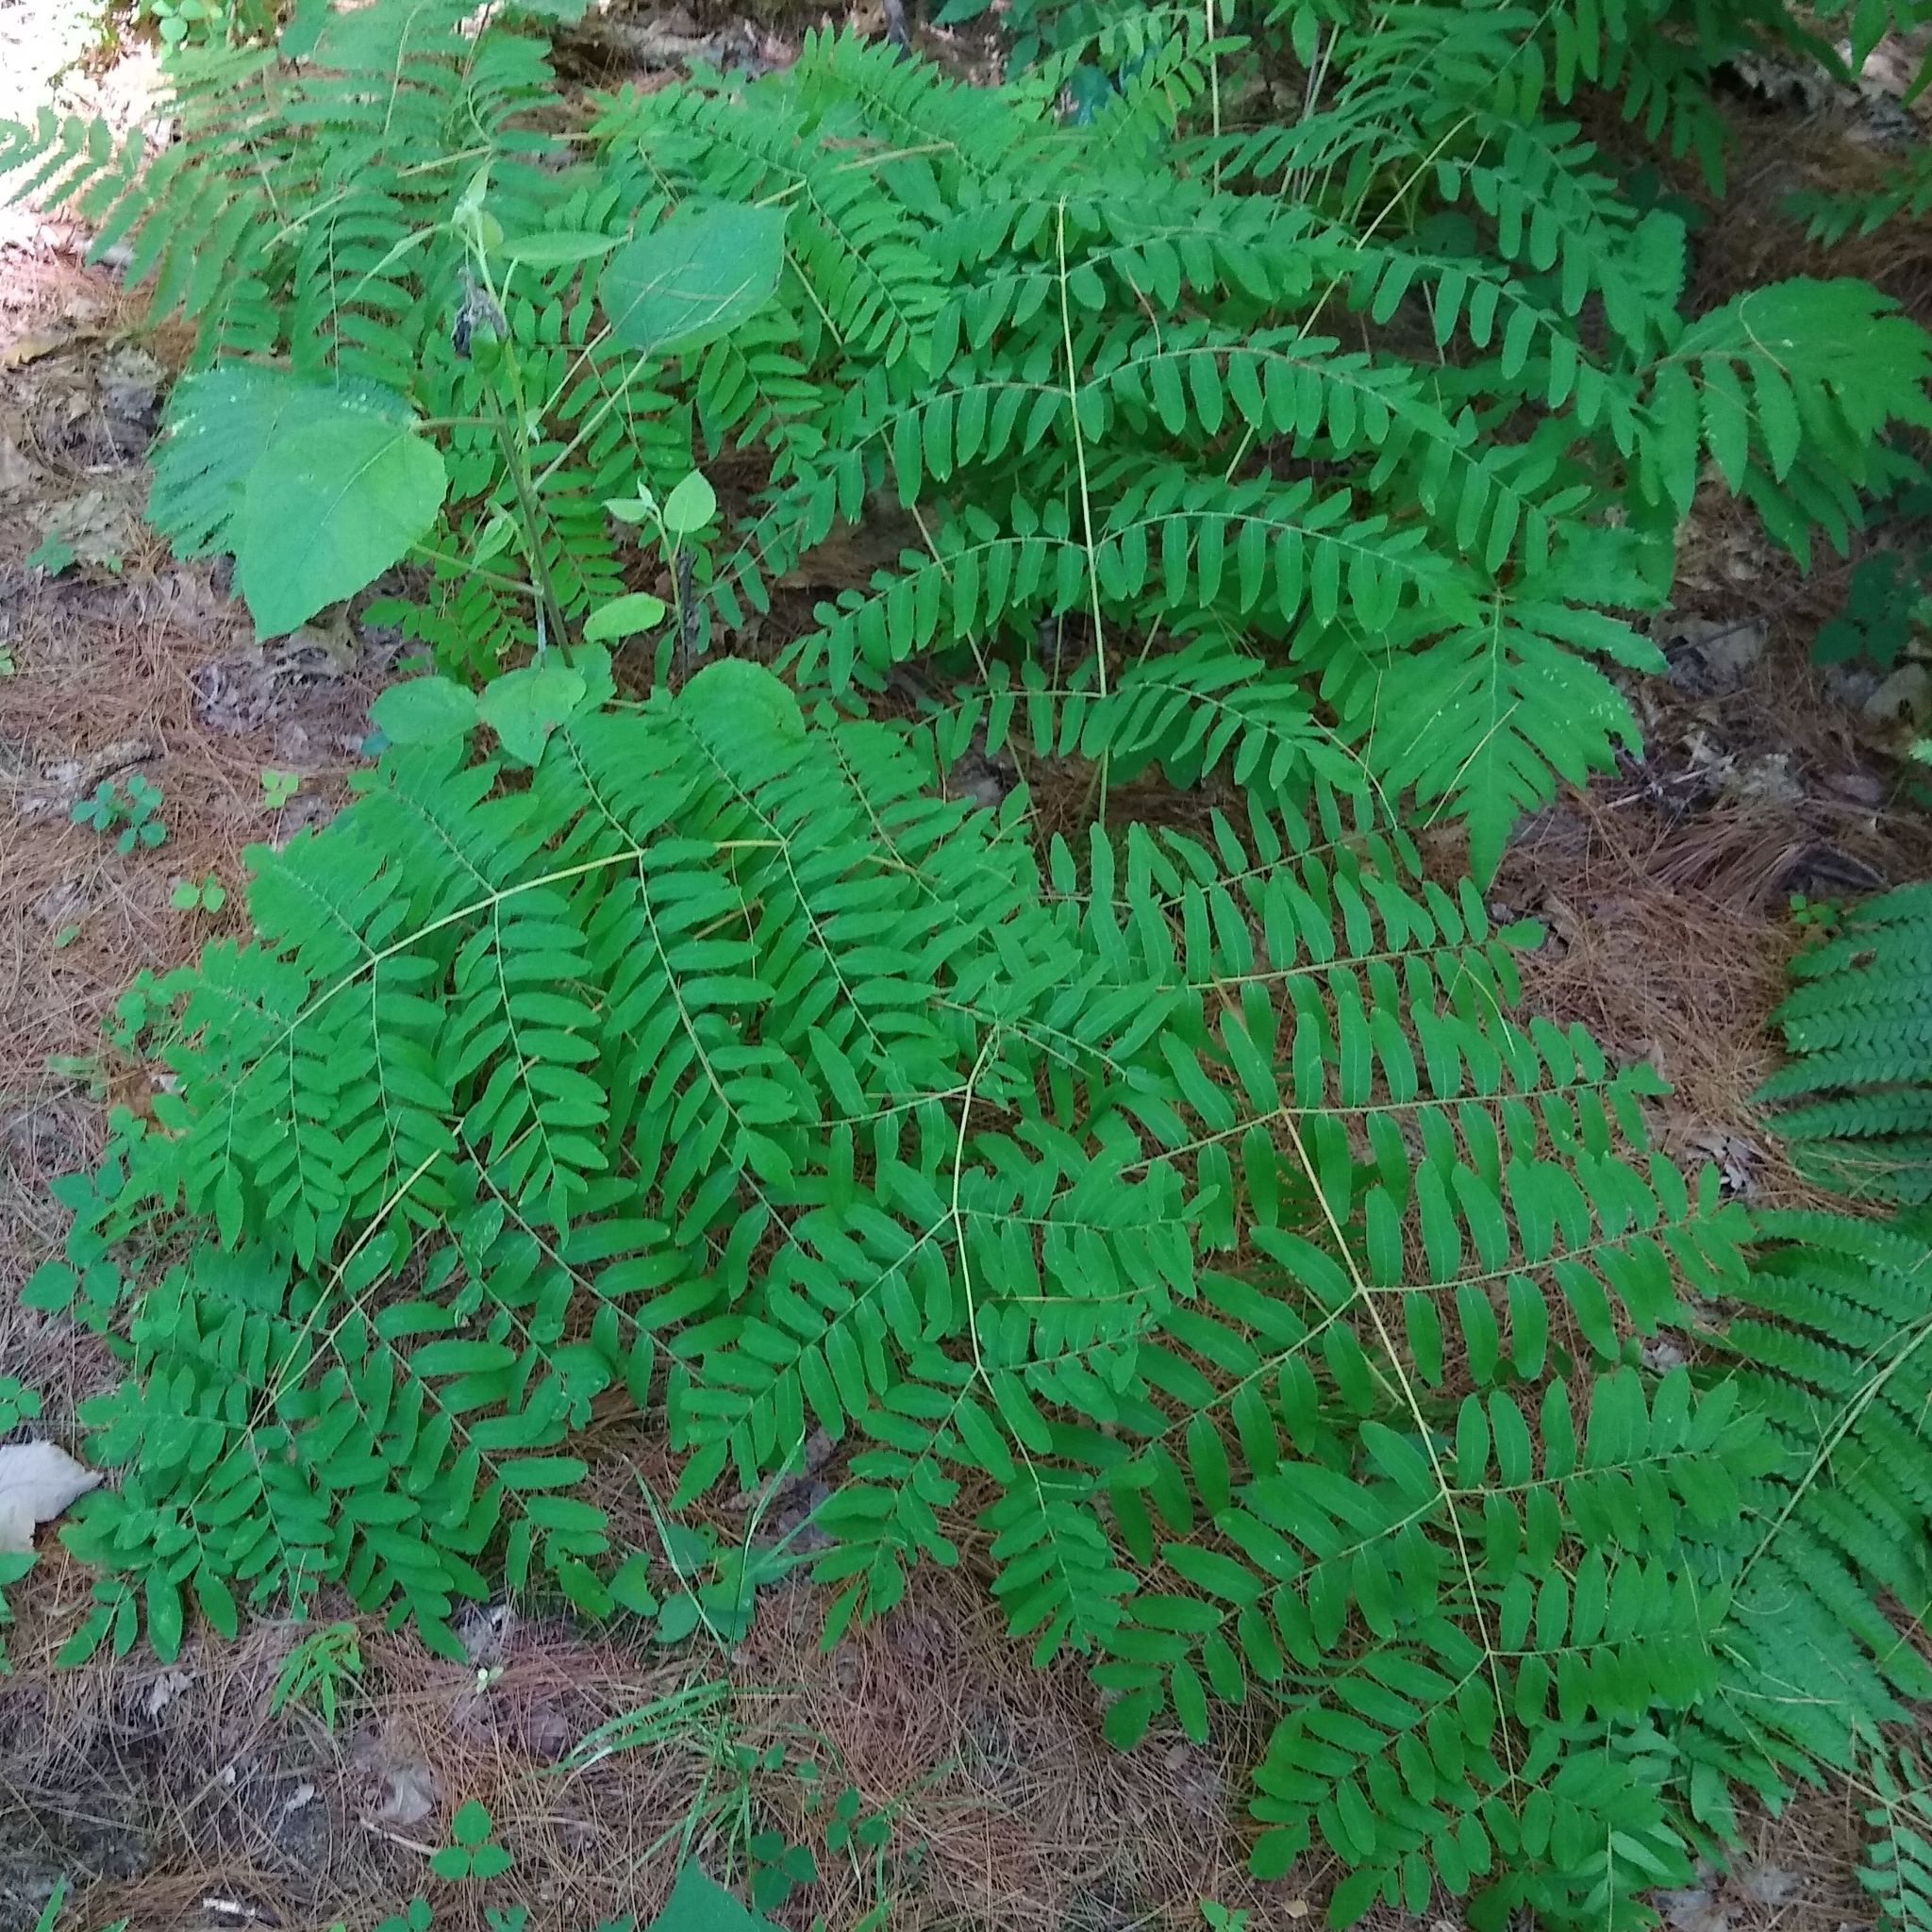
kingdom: Plantae
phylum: Tracheophyta
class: Polypodiopsida
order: Osmundales
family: Osmundaceae
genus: Osmunda
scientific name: Osmunda spectabilis
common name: American royal fern
